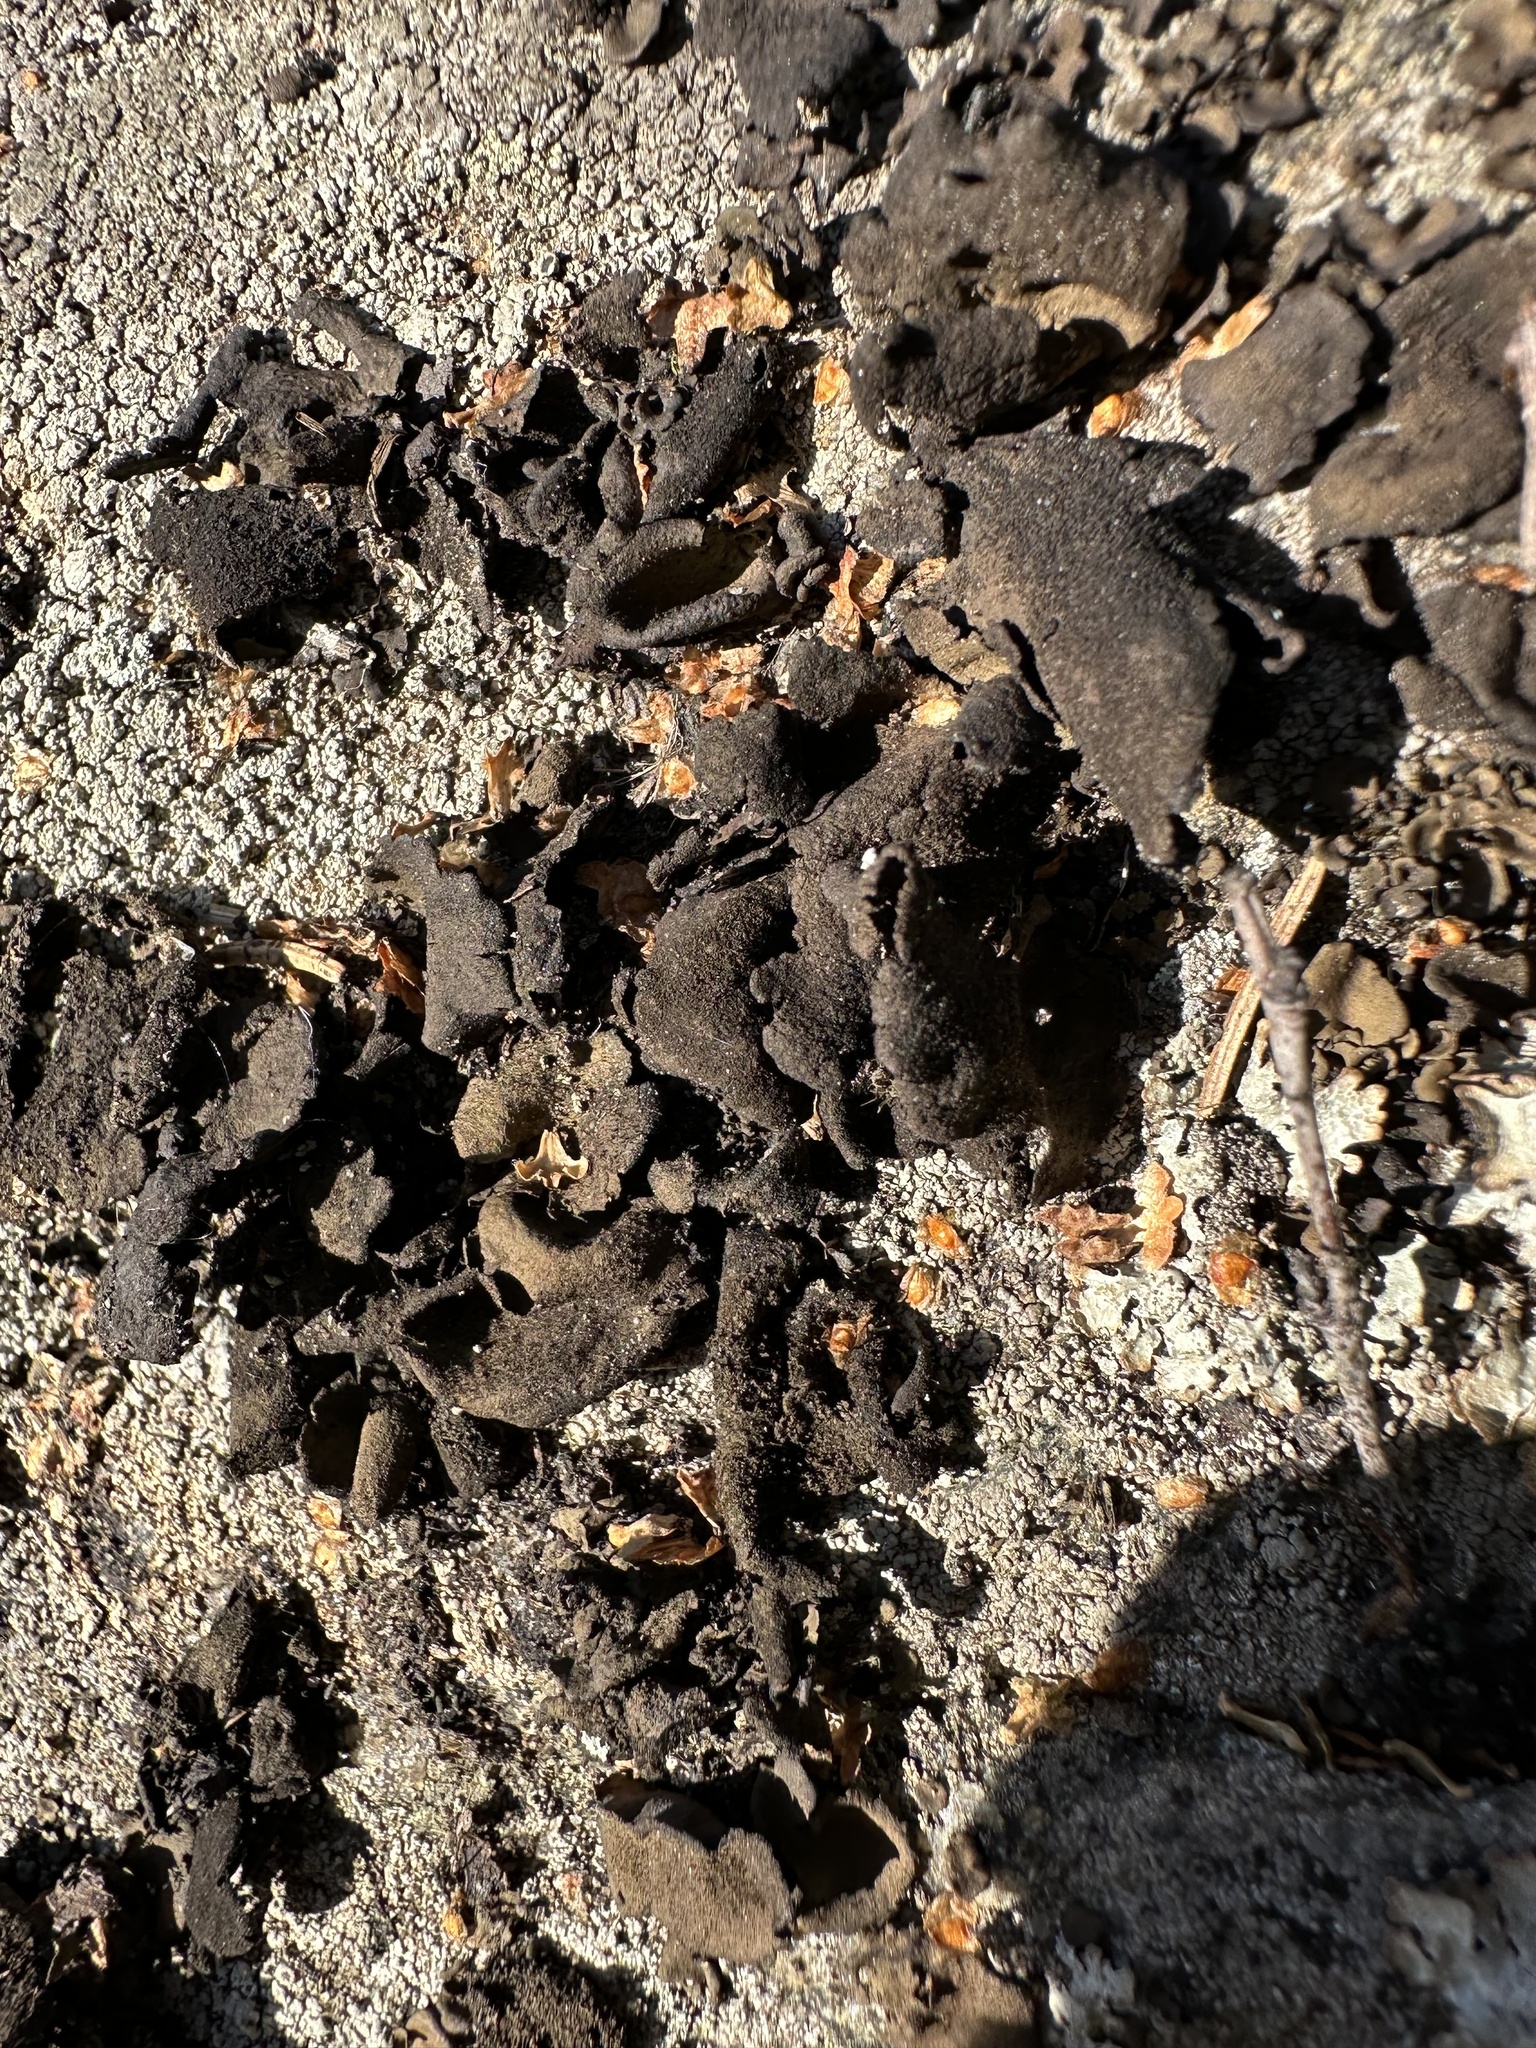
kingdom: Fungi
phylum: Ascomycota
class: Lecanoromycetes
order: Umbilicariales
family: Umbilicariaceae
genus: Umbilicaria
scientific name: Umbilicaria deusta
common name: Peppered rock tripe
